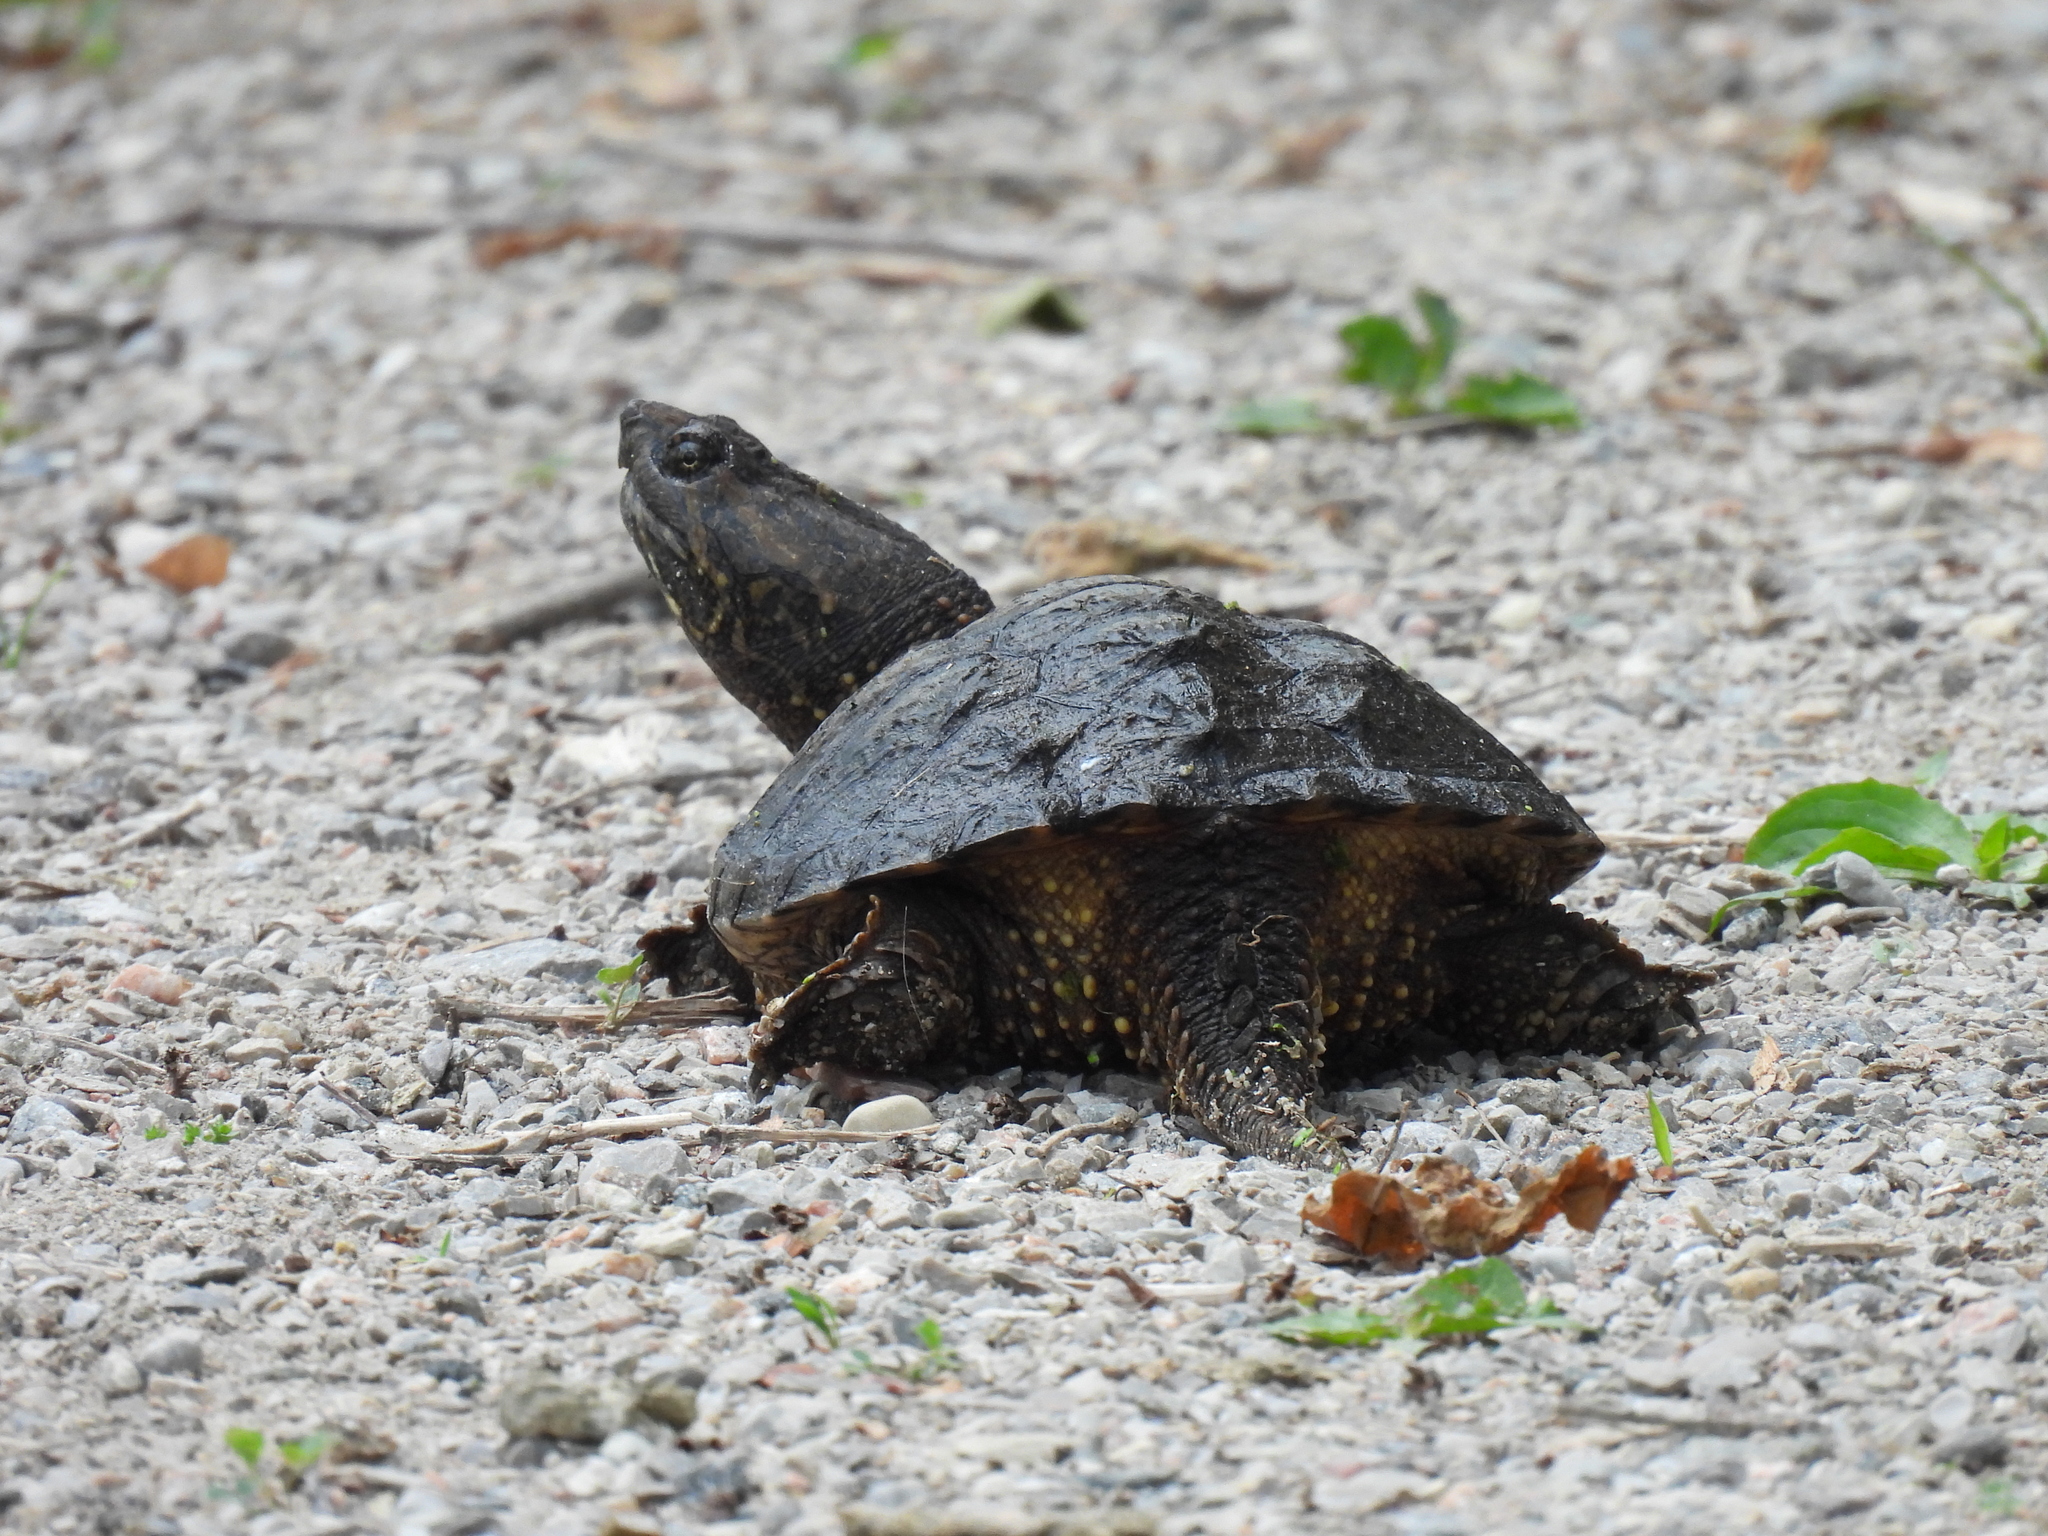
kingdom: Animalia
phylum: Chordata
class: Testudines
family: Chelydridae
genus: Chelydra
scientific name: Chelydra serpentina
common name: Common snapping turtle
